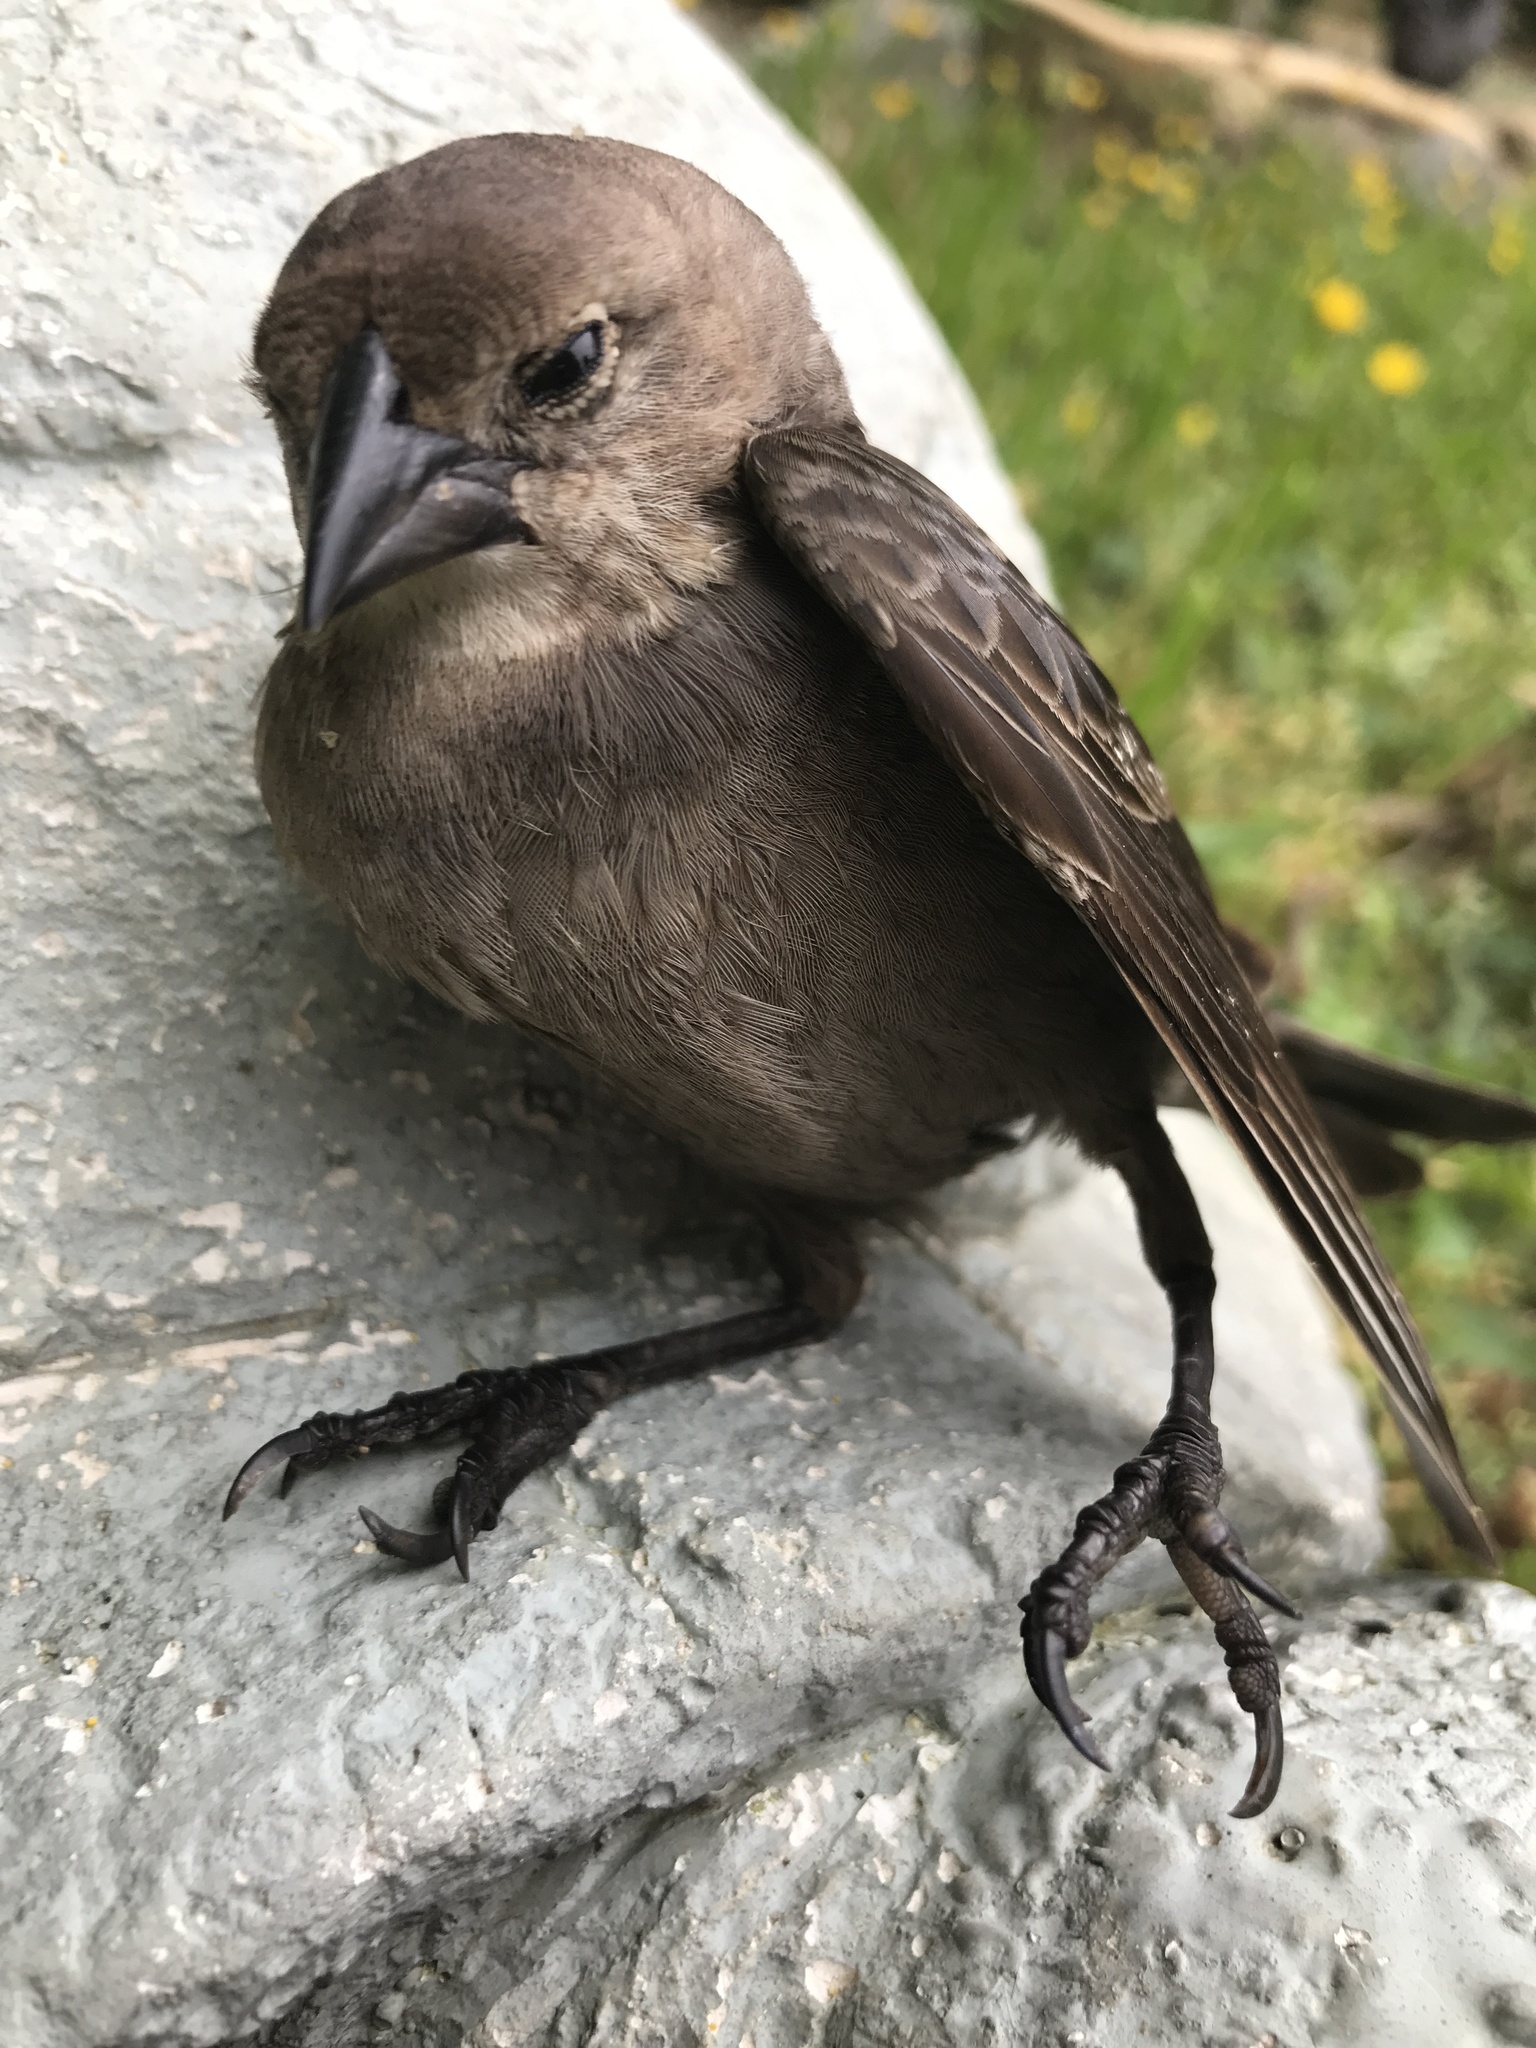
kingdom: Animalia
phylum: Chordata
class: Aves
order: Passeriformes
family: Icteridae
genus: Molothrus
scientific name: Molothrus ater
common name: Brown-headed cowbird
